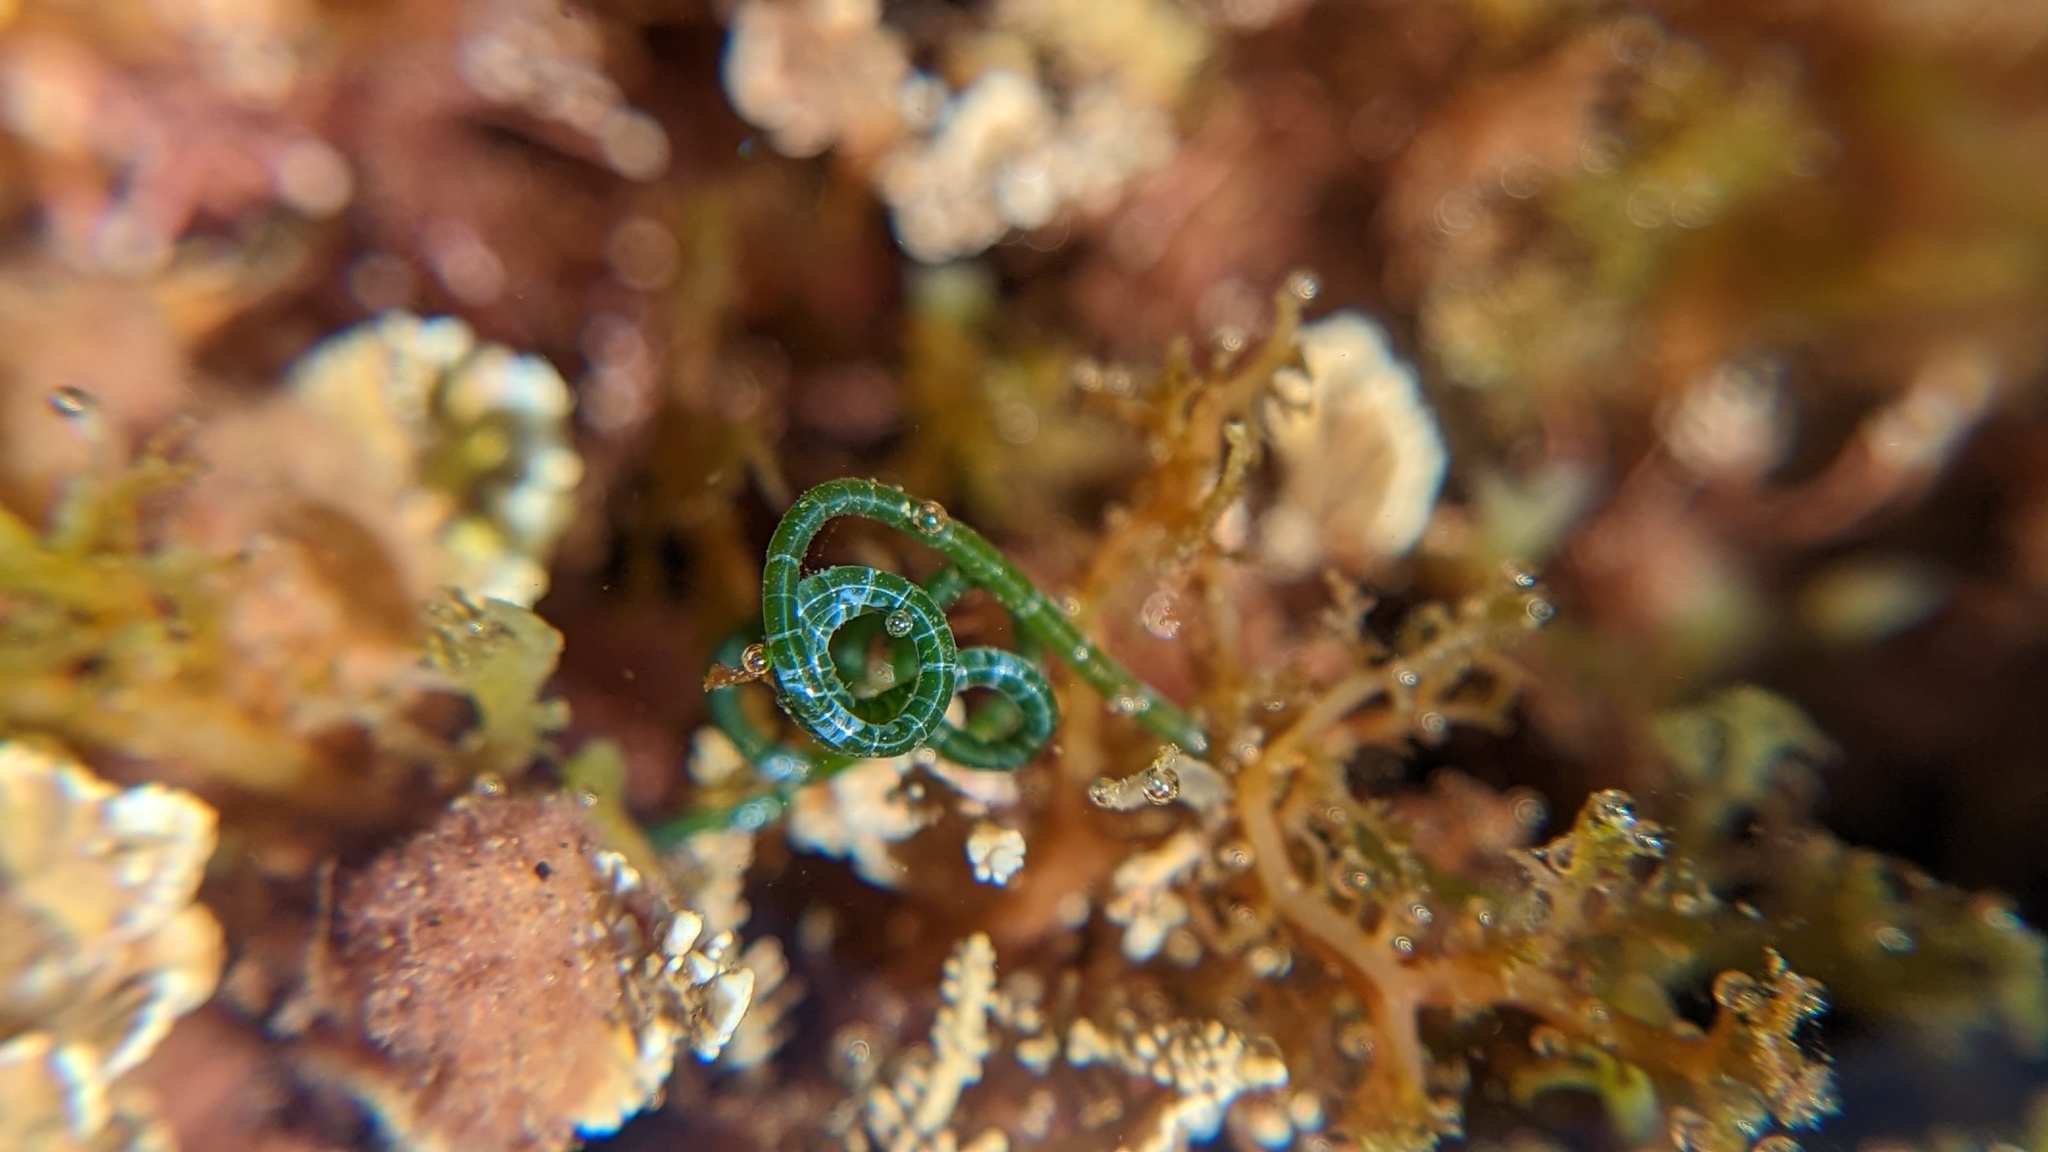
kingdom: Plantae
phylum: Chlorophyta
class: Ulvophyceae
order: Cladophorales
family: Cladophoraceae
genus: Chaetomorpha
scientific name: Chaetomorpha spiralis
